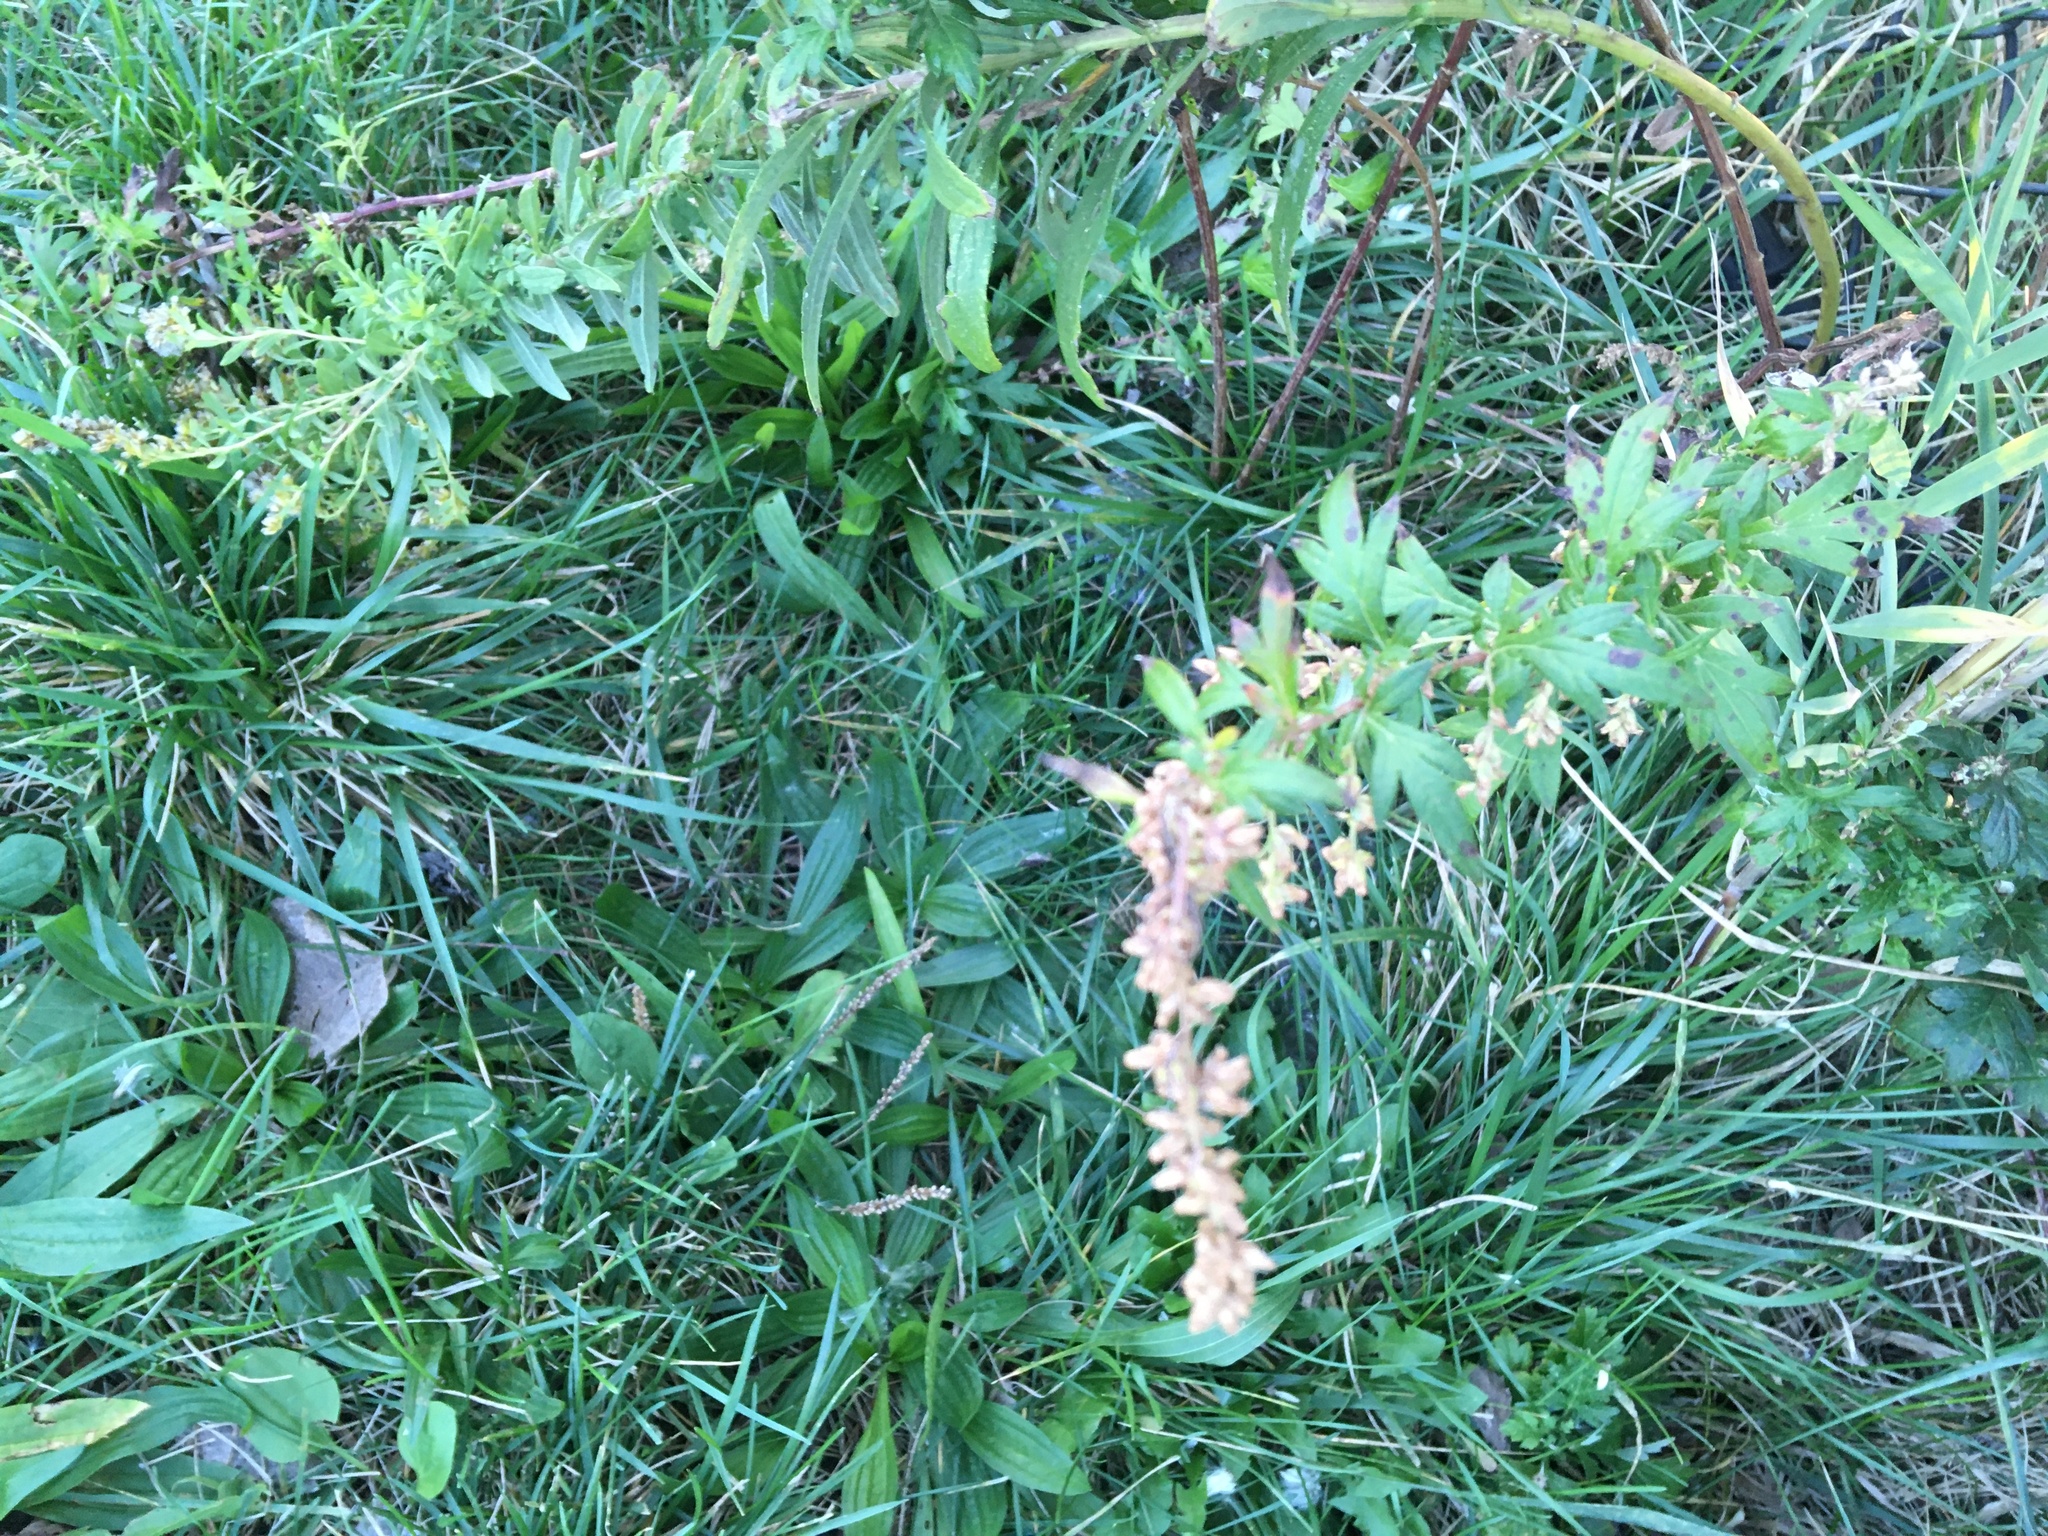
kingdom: Plantae
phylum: Tracheophyta
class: Magnoliopsida
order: Asterales
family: Asteraceae
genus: Artemisia
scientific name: Artemisia vulgaris
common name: Mugwort
